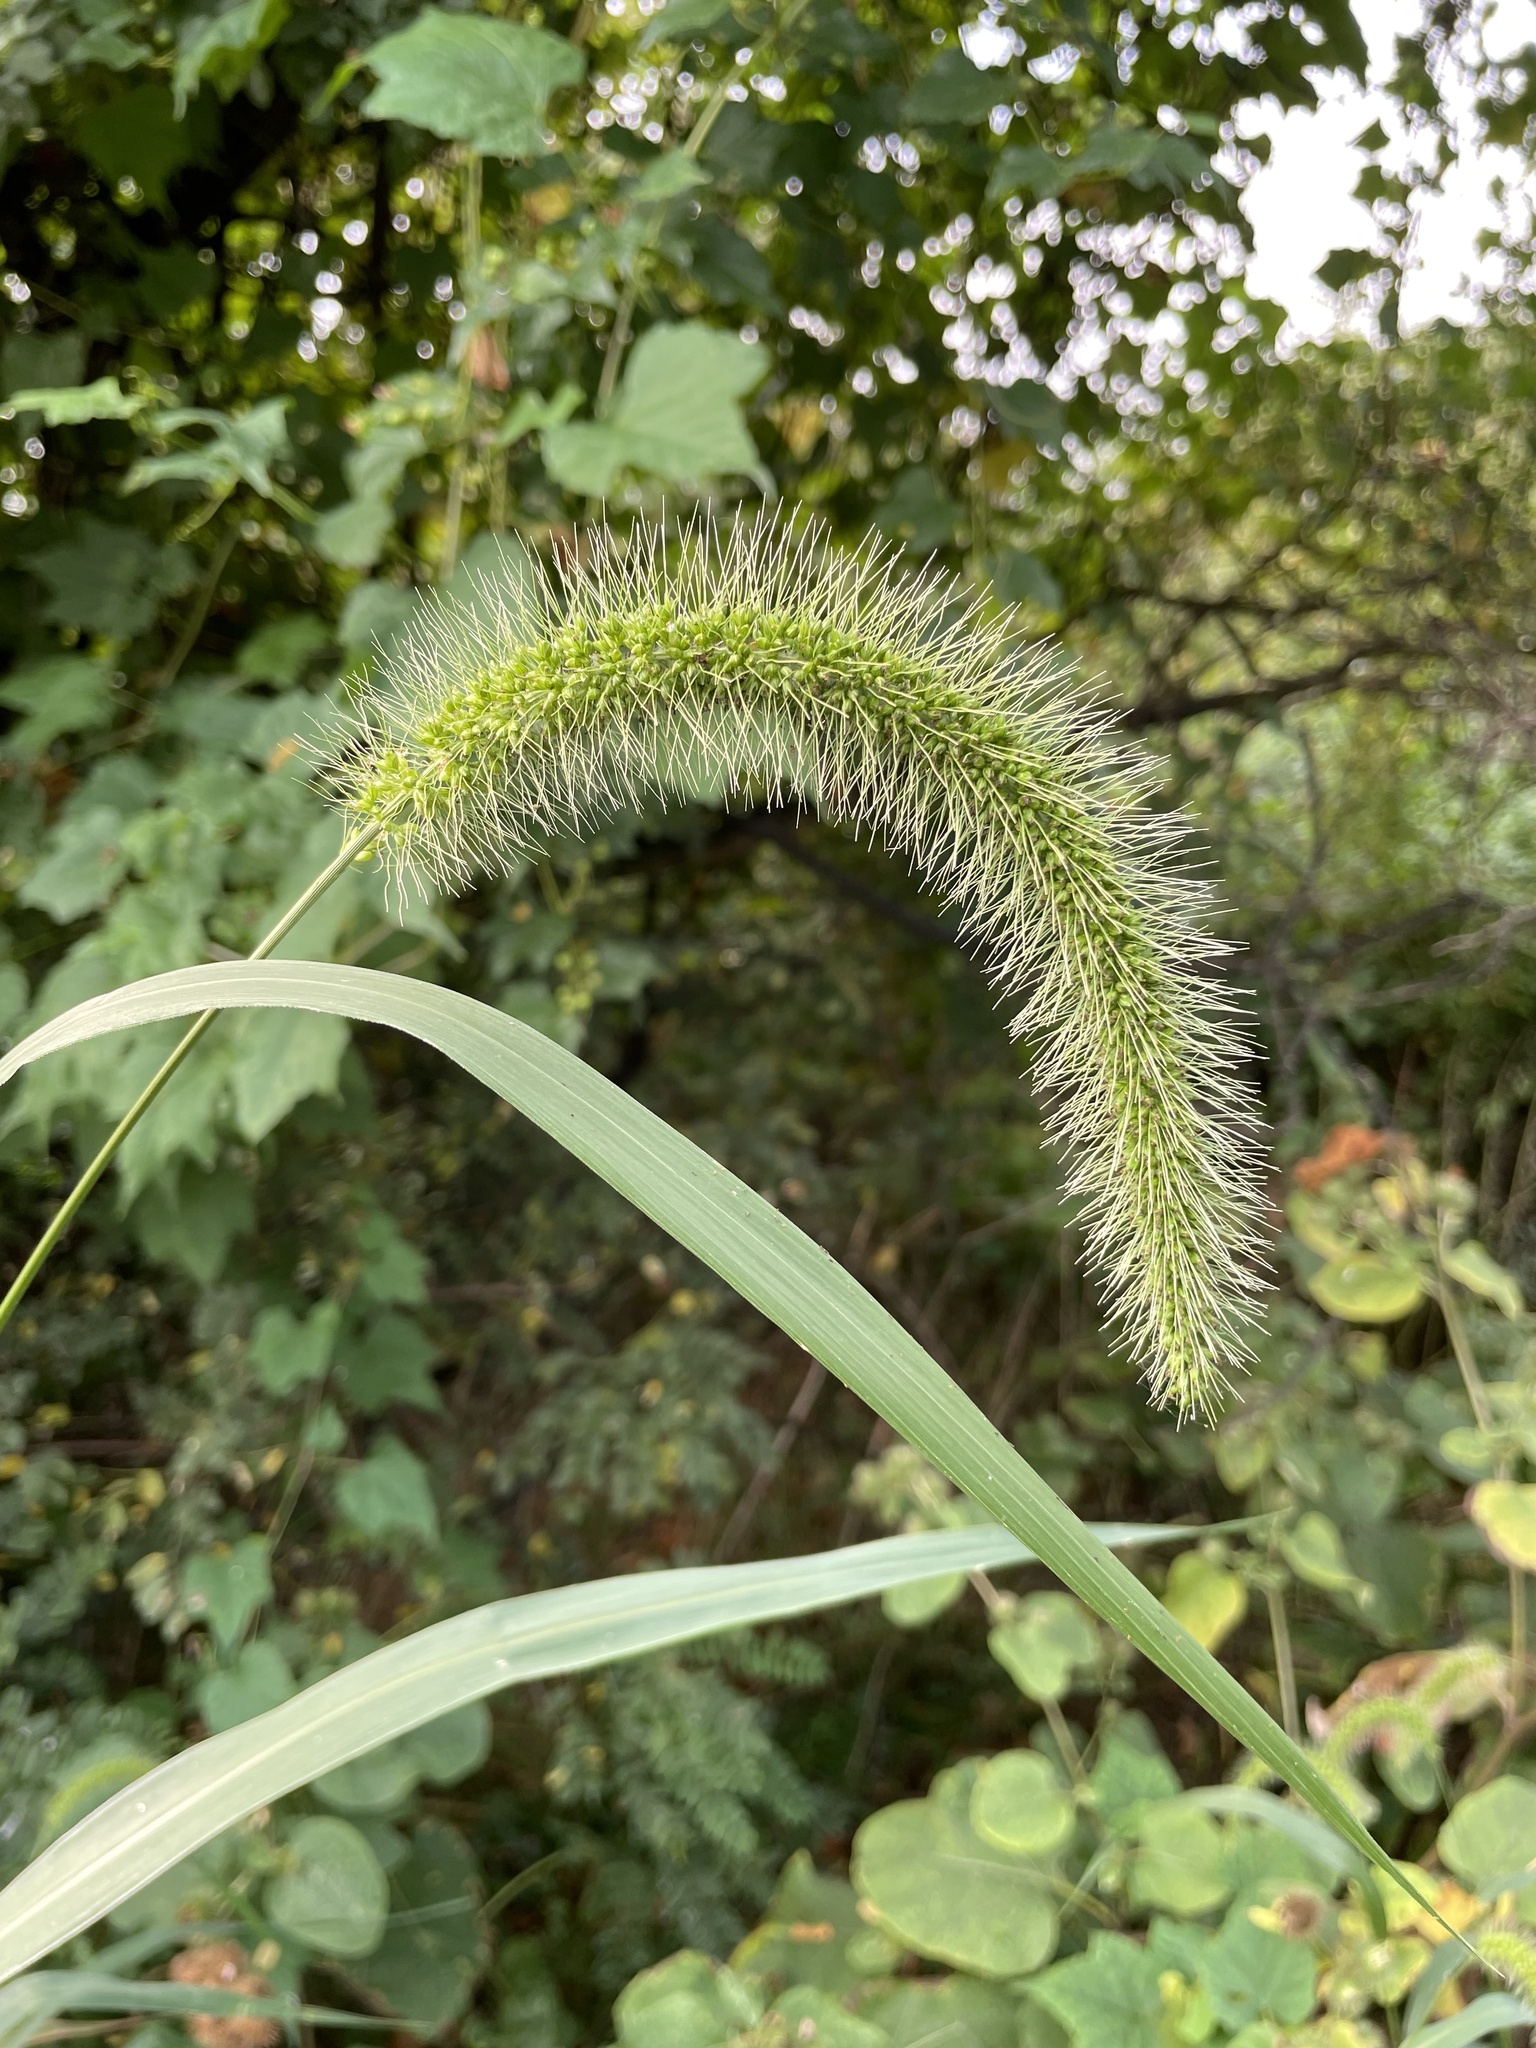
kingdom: Plantae
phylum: Tracheophyta
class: Liliopsida
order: Poales
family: Poaceae
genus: Setaria
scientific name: Setaria faberi
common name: Nodding bristle-grass
